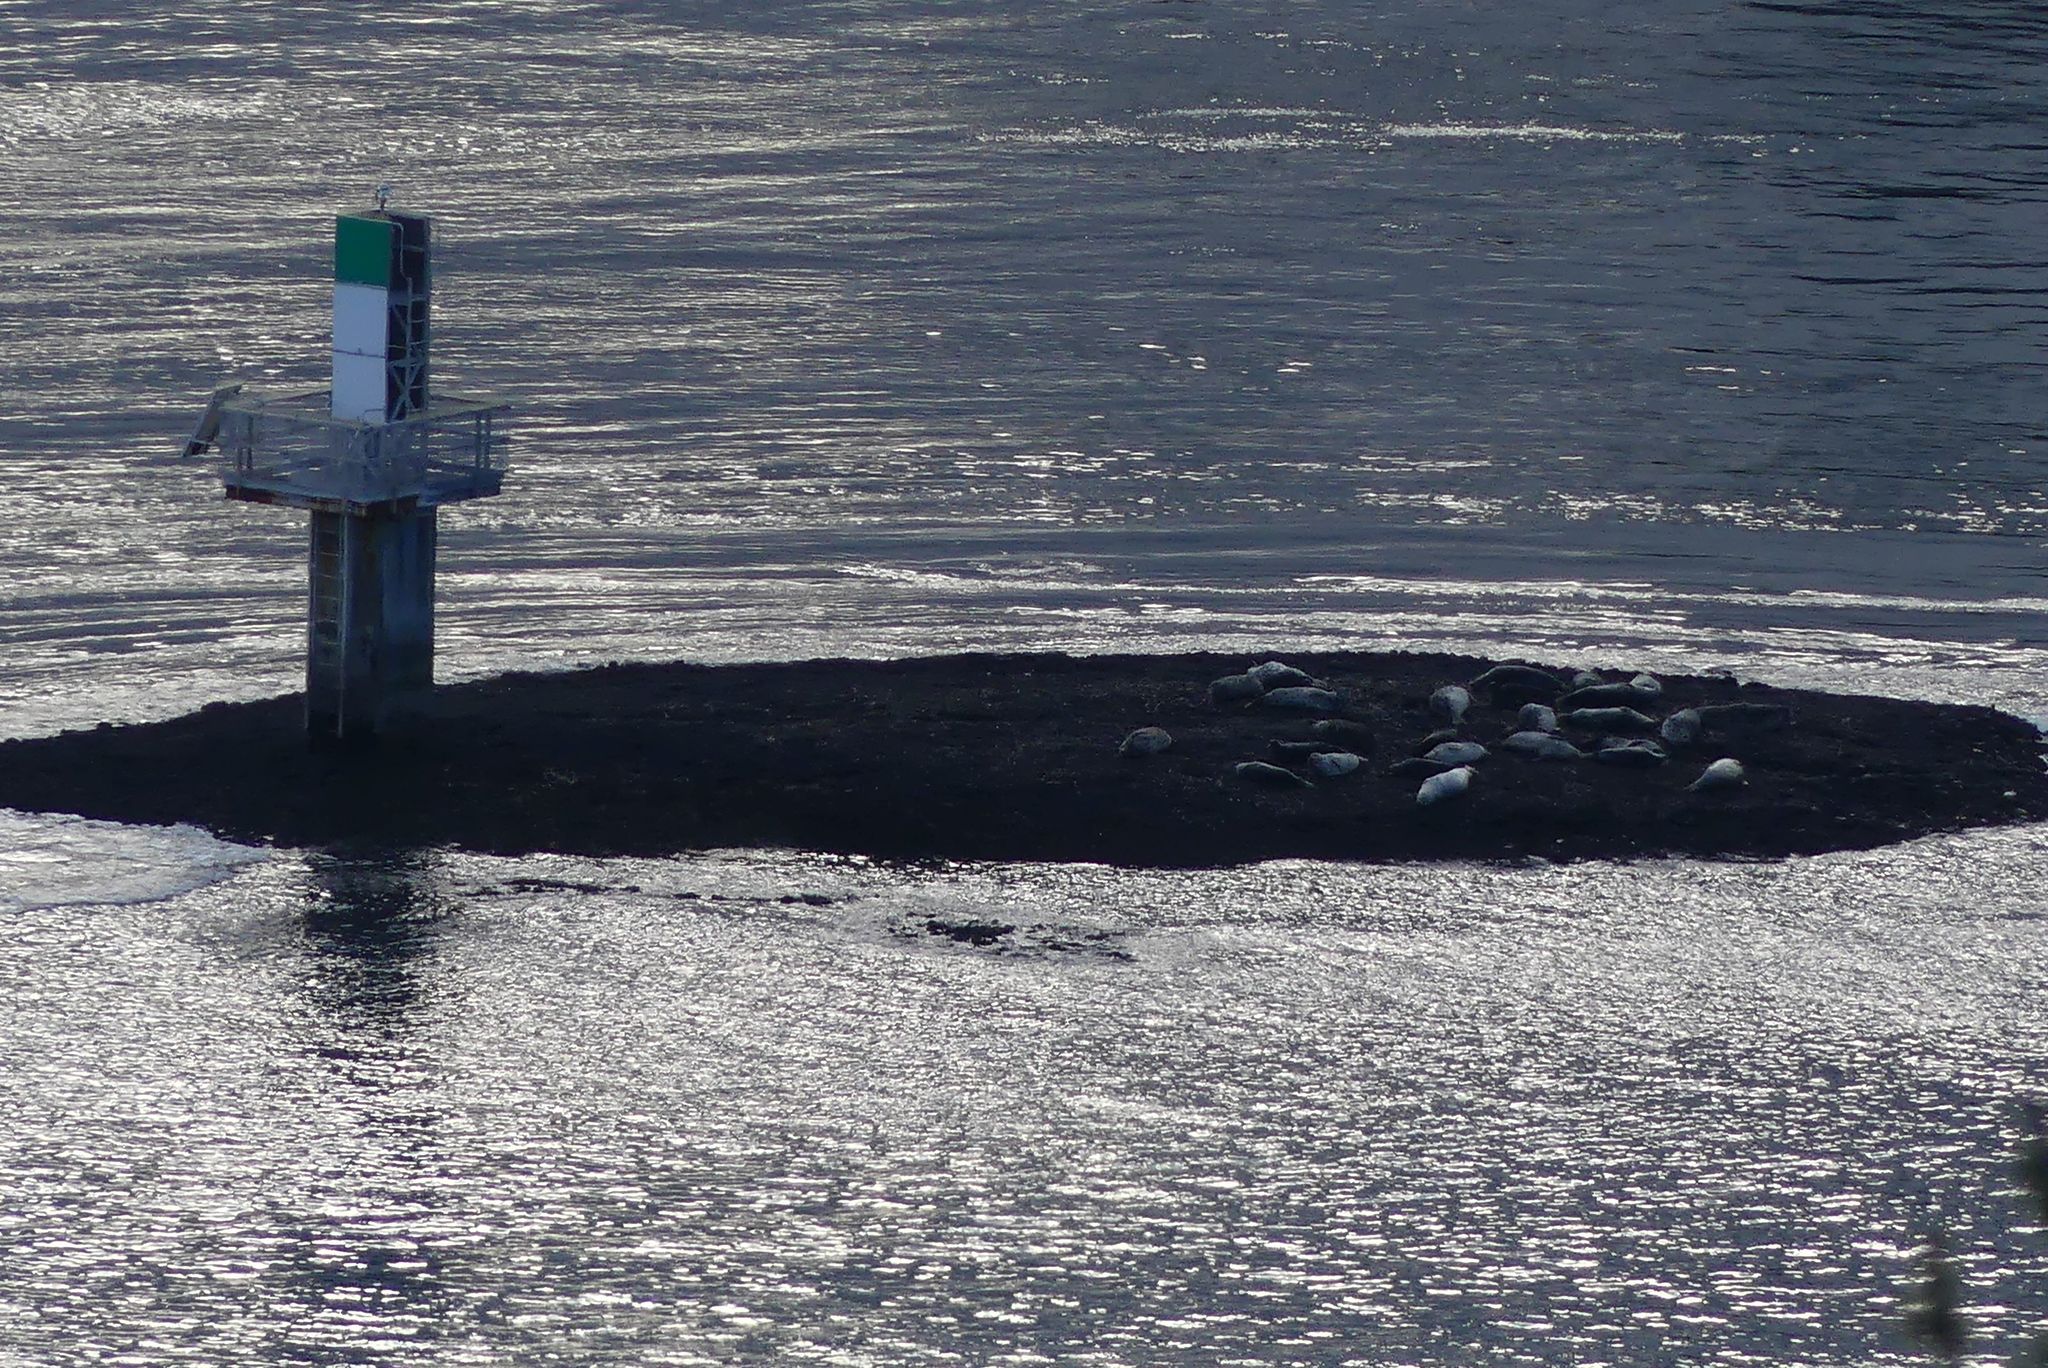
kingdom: Animalia
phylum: Chordata
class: Mammalia
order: Carnivora
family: Phocidae
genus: Phoca
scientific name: Phoca vitulina
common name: Harbor seal
